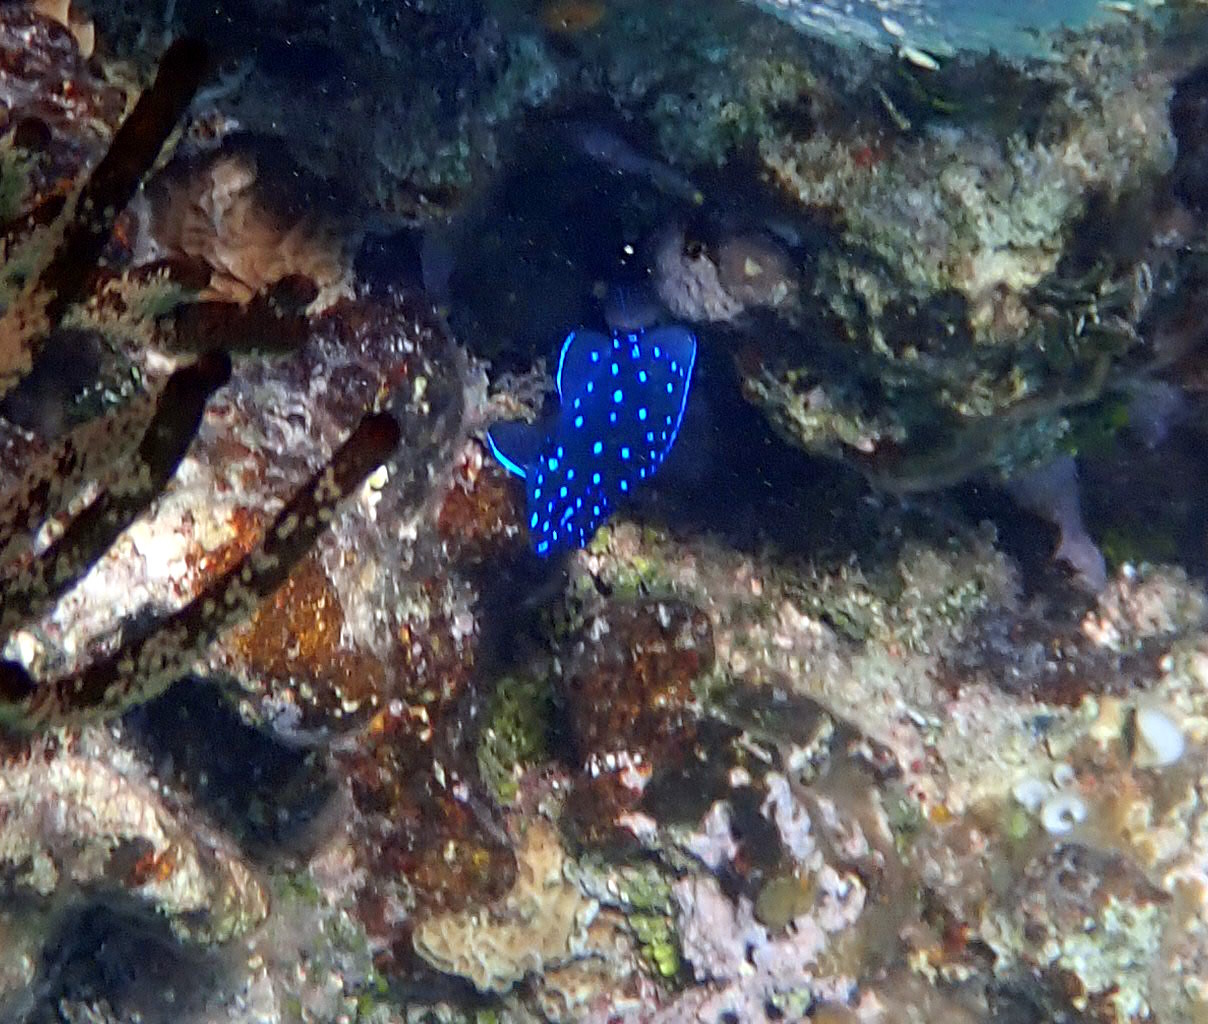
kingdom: Animalia
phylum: Chordata
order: Perciformes
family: Pomacentridae
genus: Microspathodon
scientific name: Microspathodon chrysurus
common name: Yellowtail damselfish
